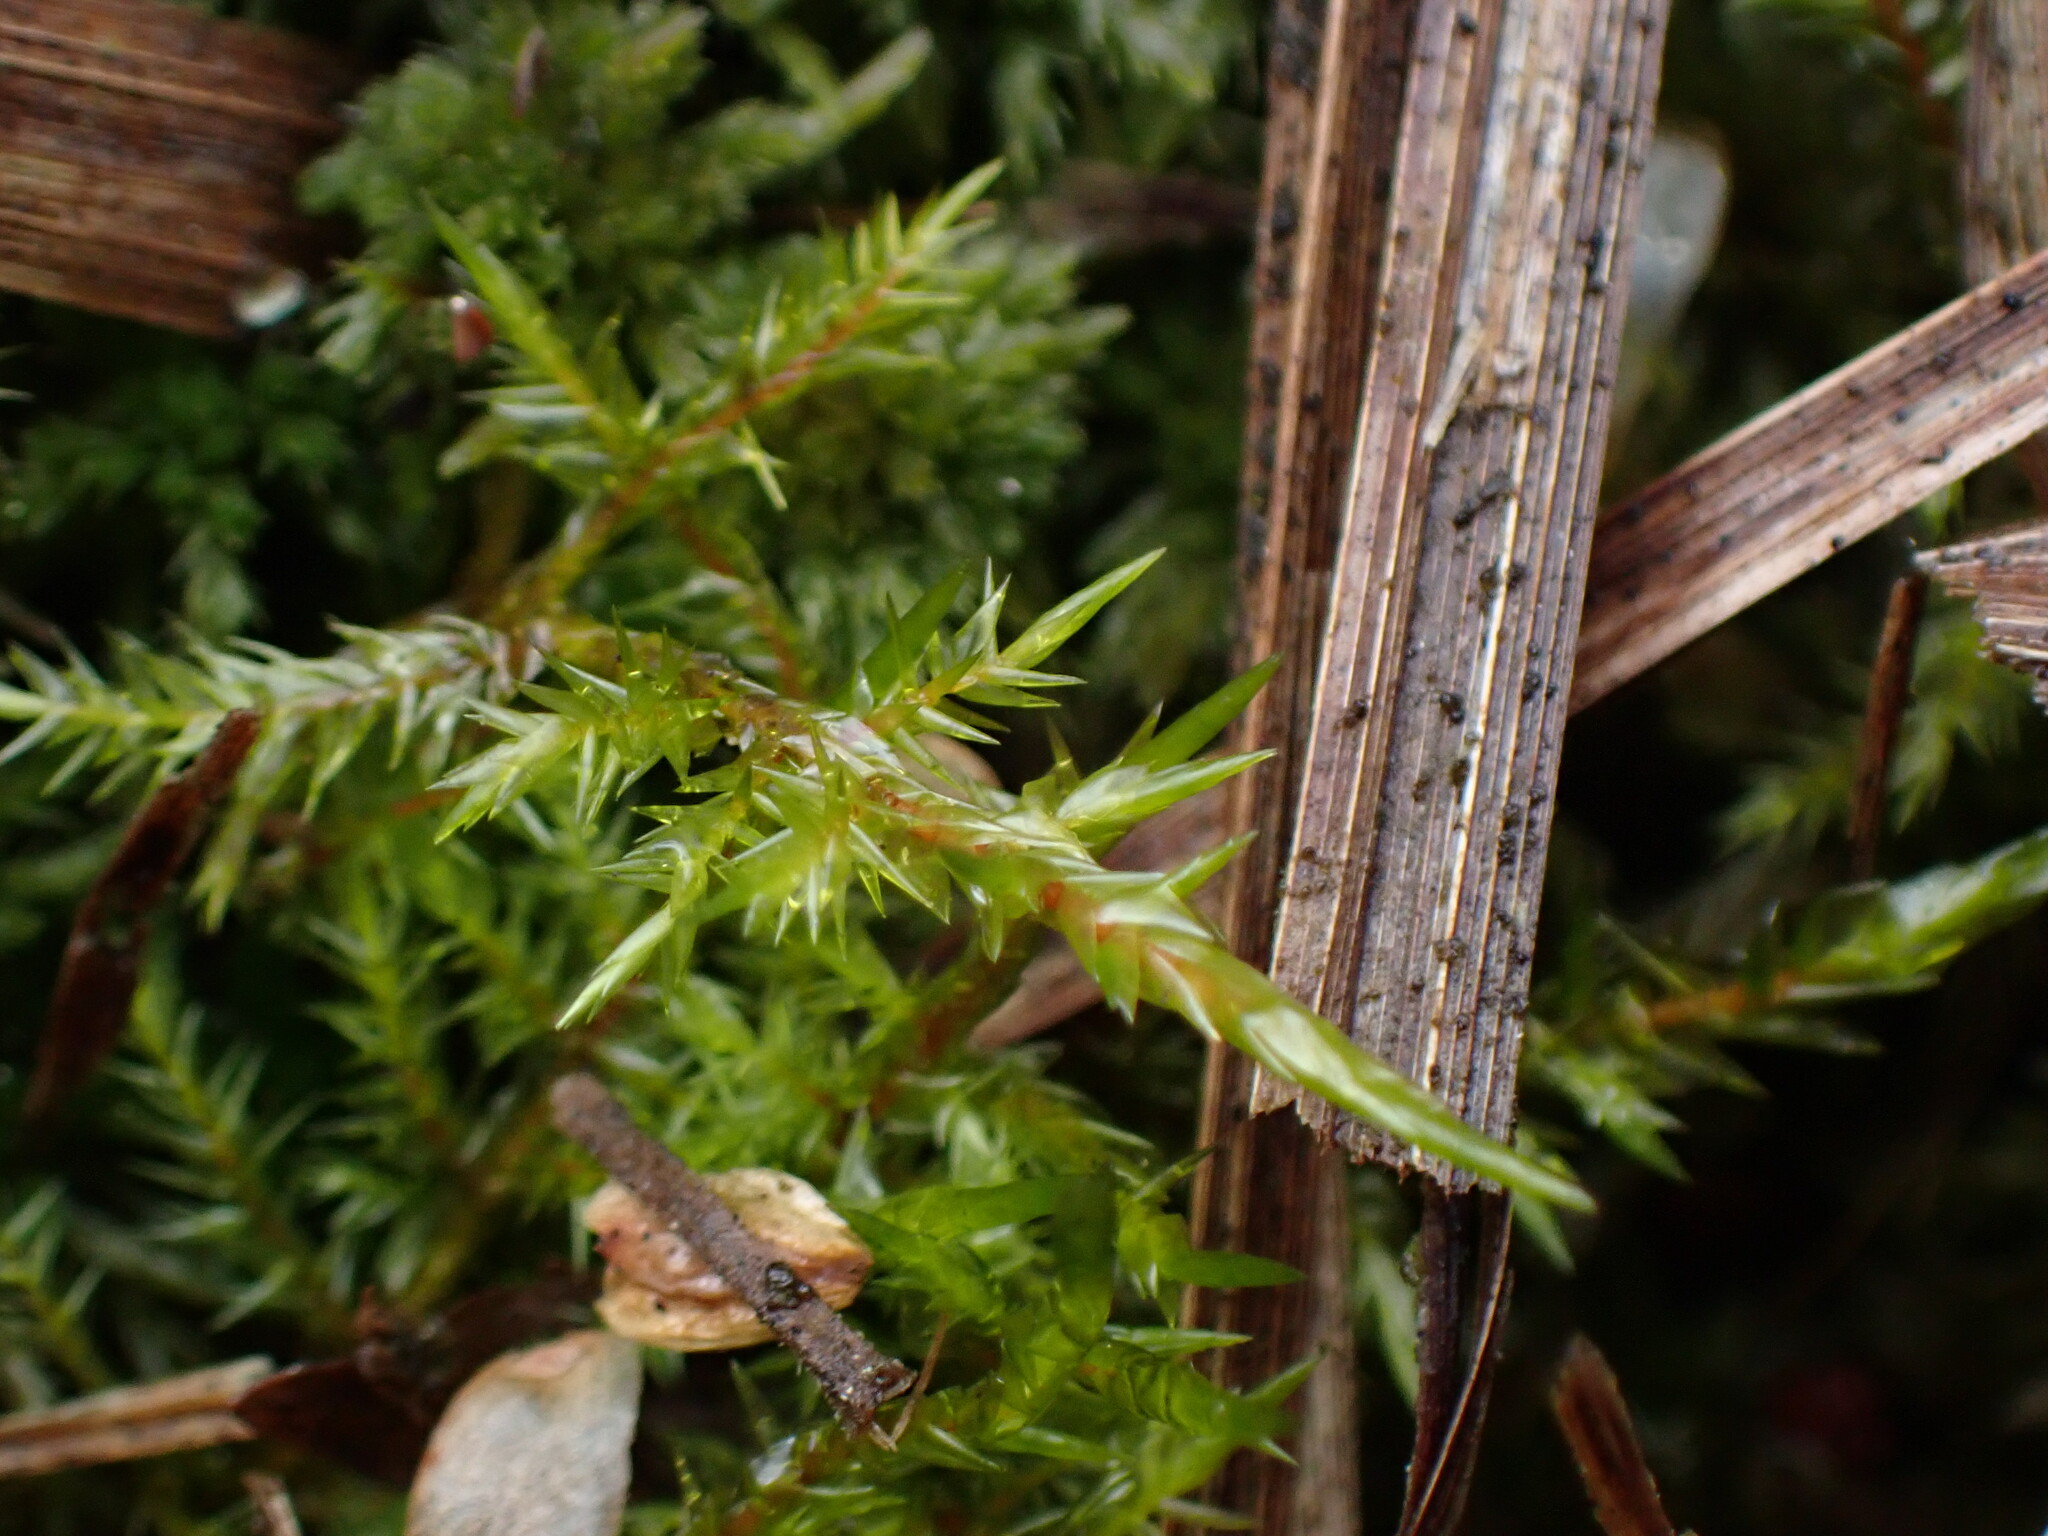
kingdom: Plantae
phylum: Bryophyta
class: Bryopsida
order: Hypnales
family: Pylaisiaceae
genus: Calliergonella
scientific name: Calliergonella cuspidata
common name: Common large wetland moss
